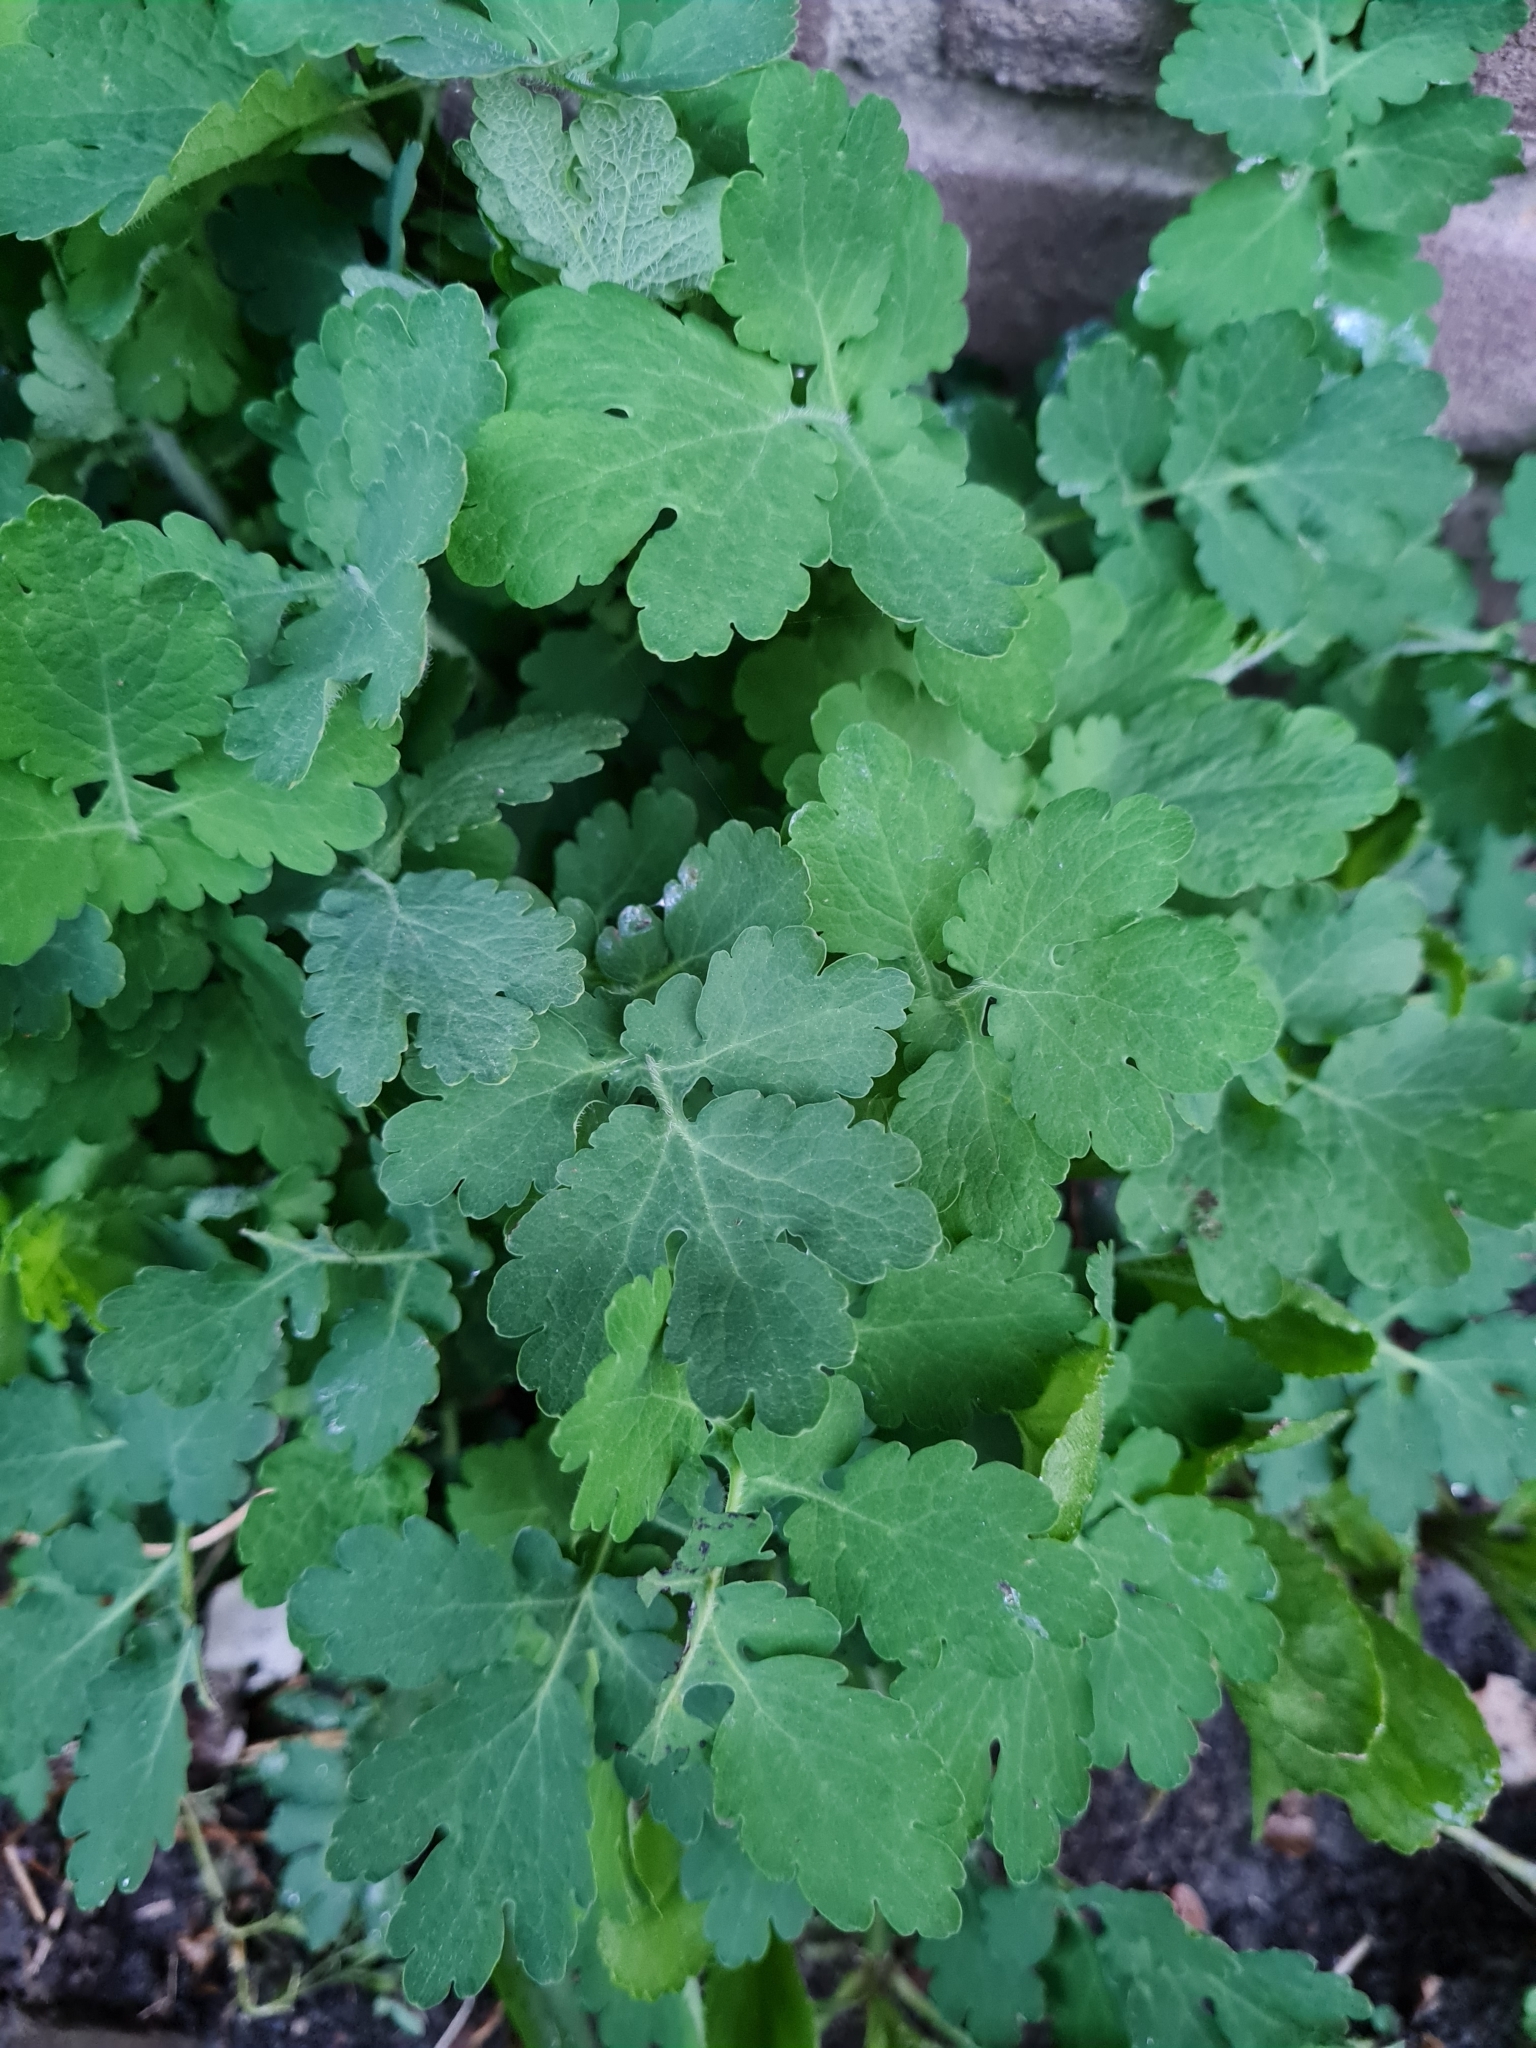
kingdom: Plantae
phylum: Tracheophyta
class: Magnoliopsida
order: Ranunculales
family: Papaveraceae
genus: Chelidonium
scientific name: Chelidonium majus
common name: Greater celandine
